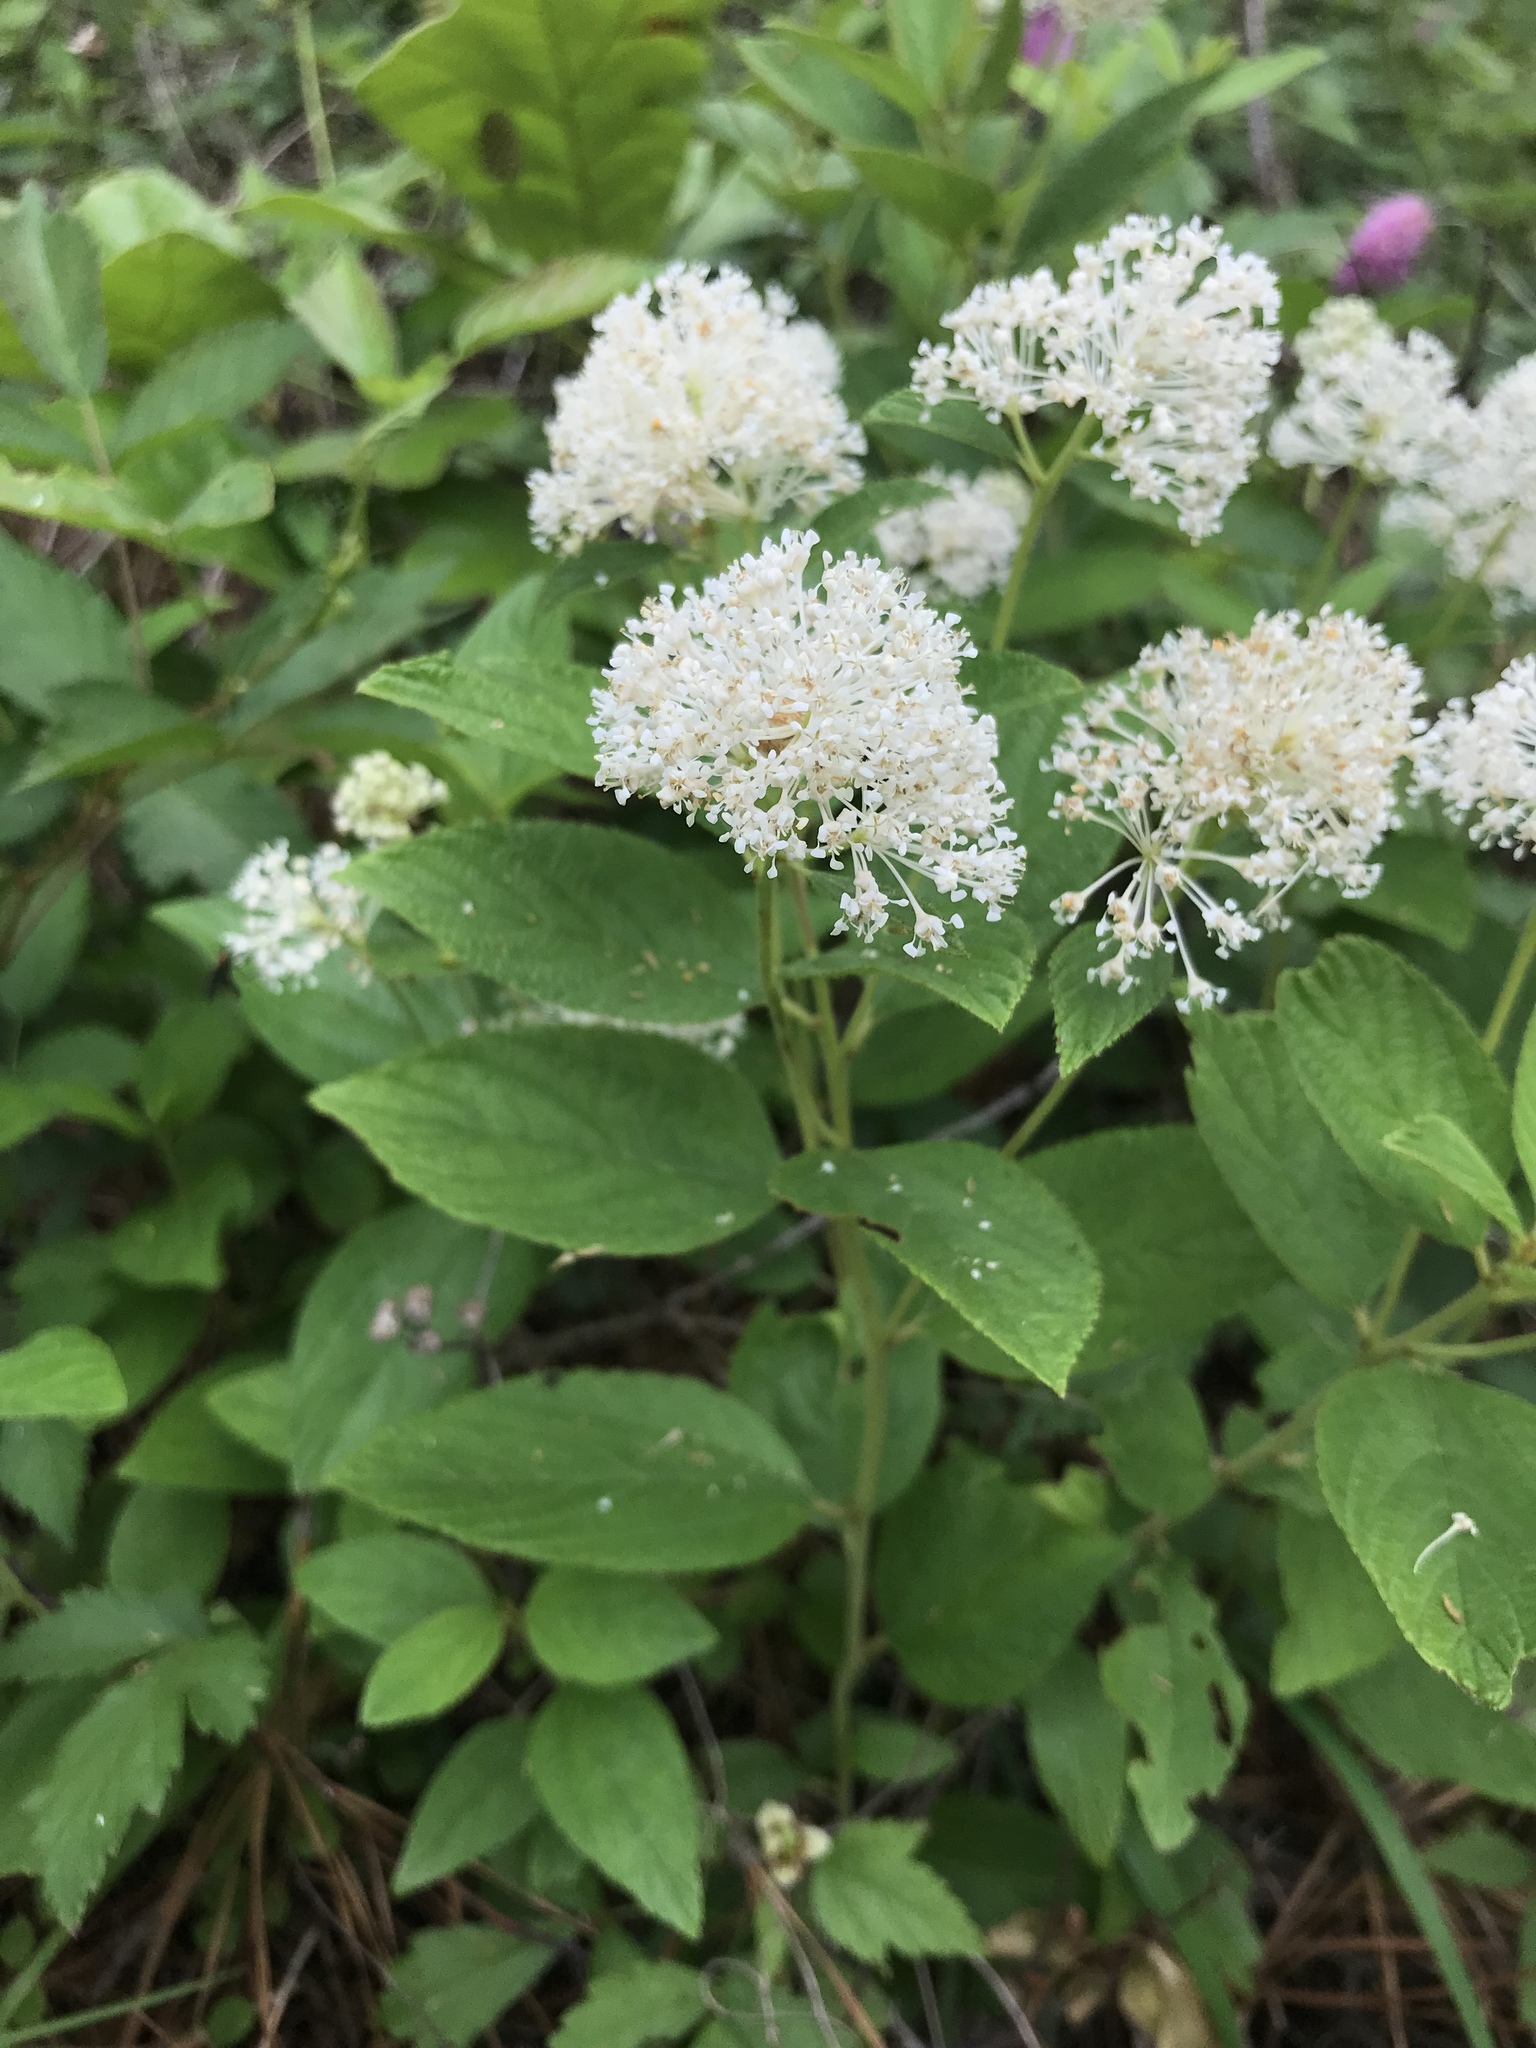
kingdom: Plantae
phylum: Tracheophyta
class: Magnoliopsida
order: Rosales
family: Rhamnaceae
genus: Ceanothus
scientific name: Ceanothus americanus
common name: Redroot
